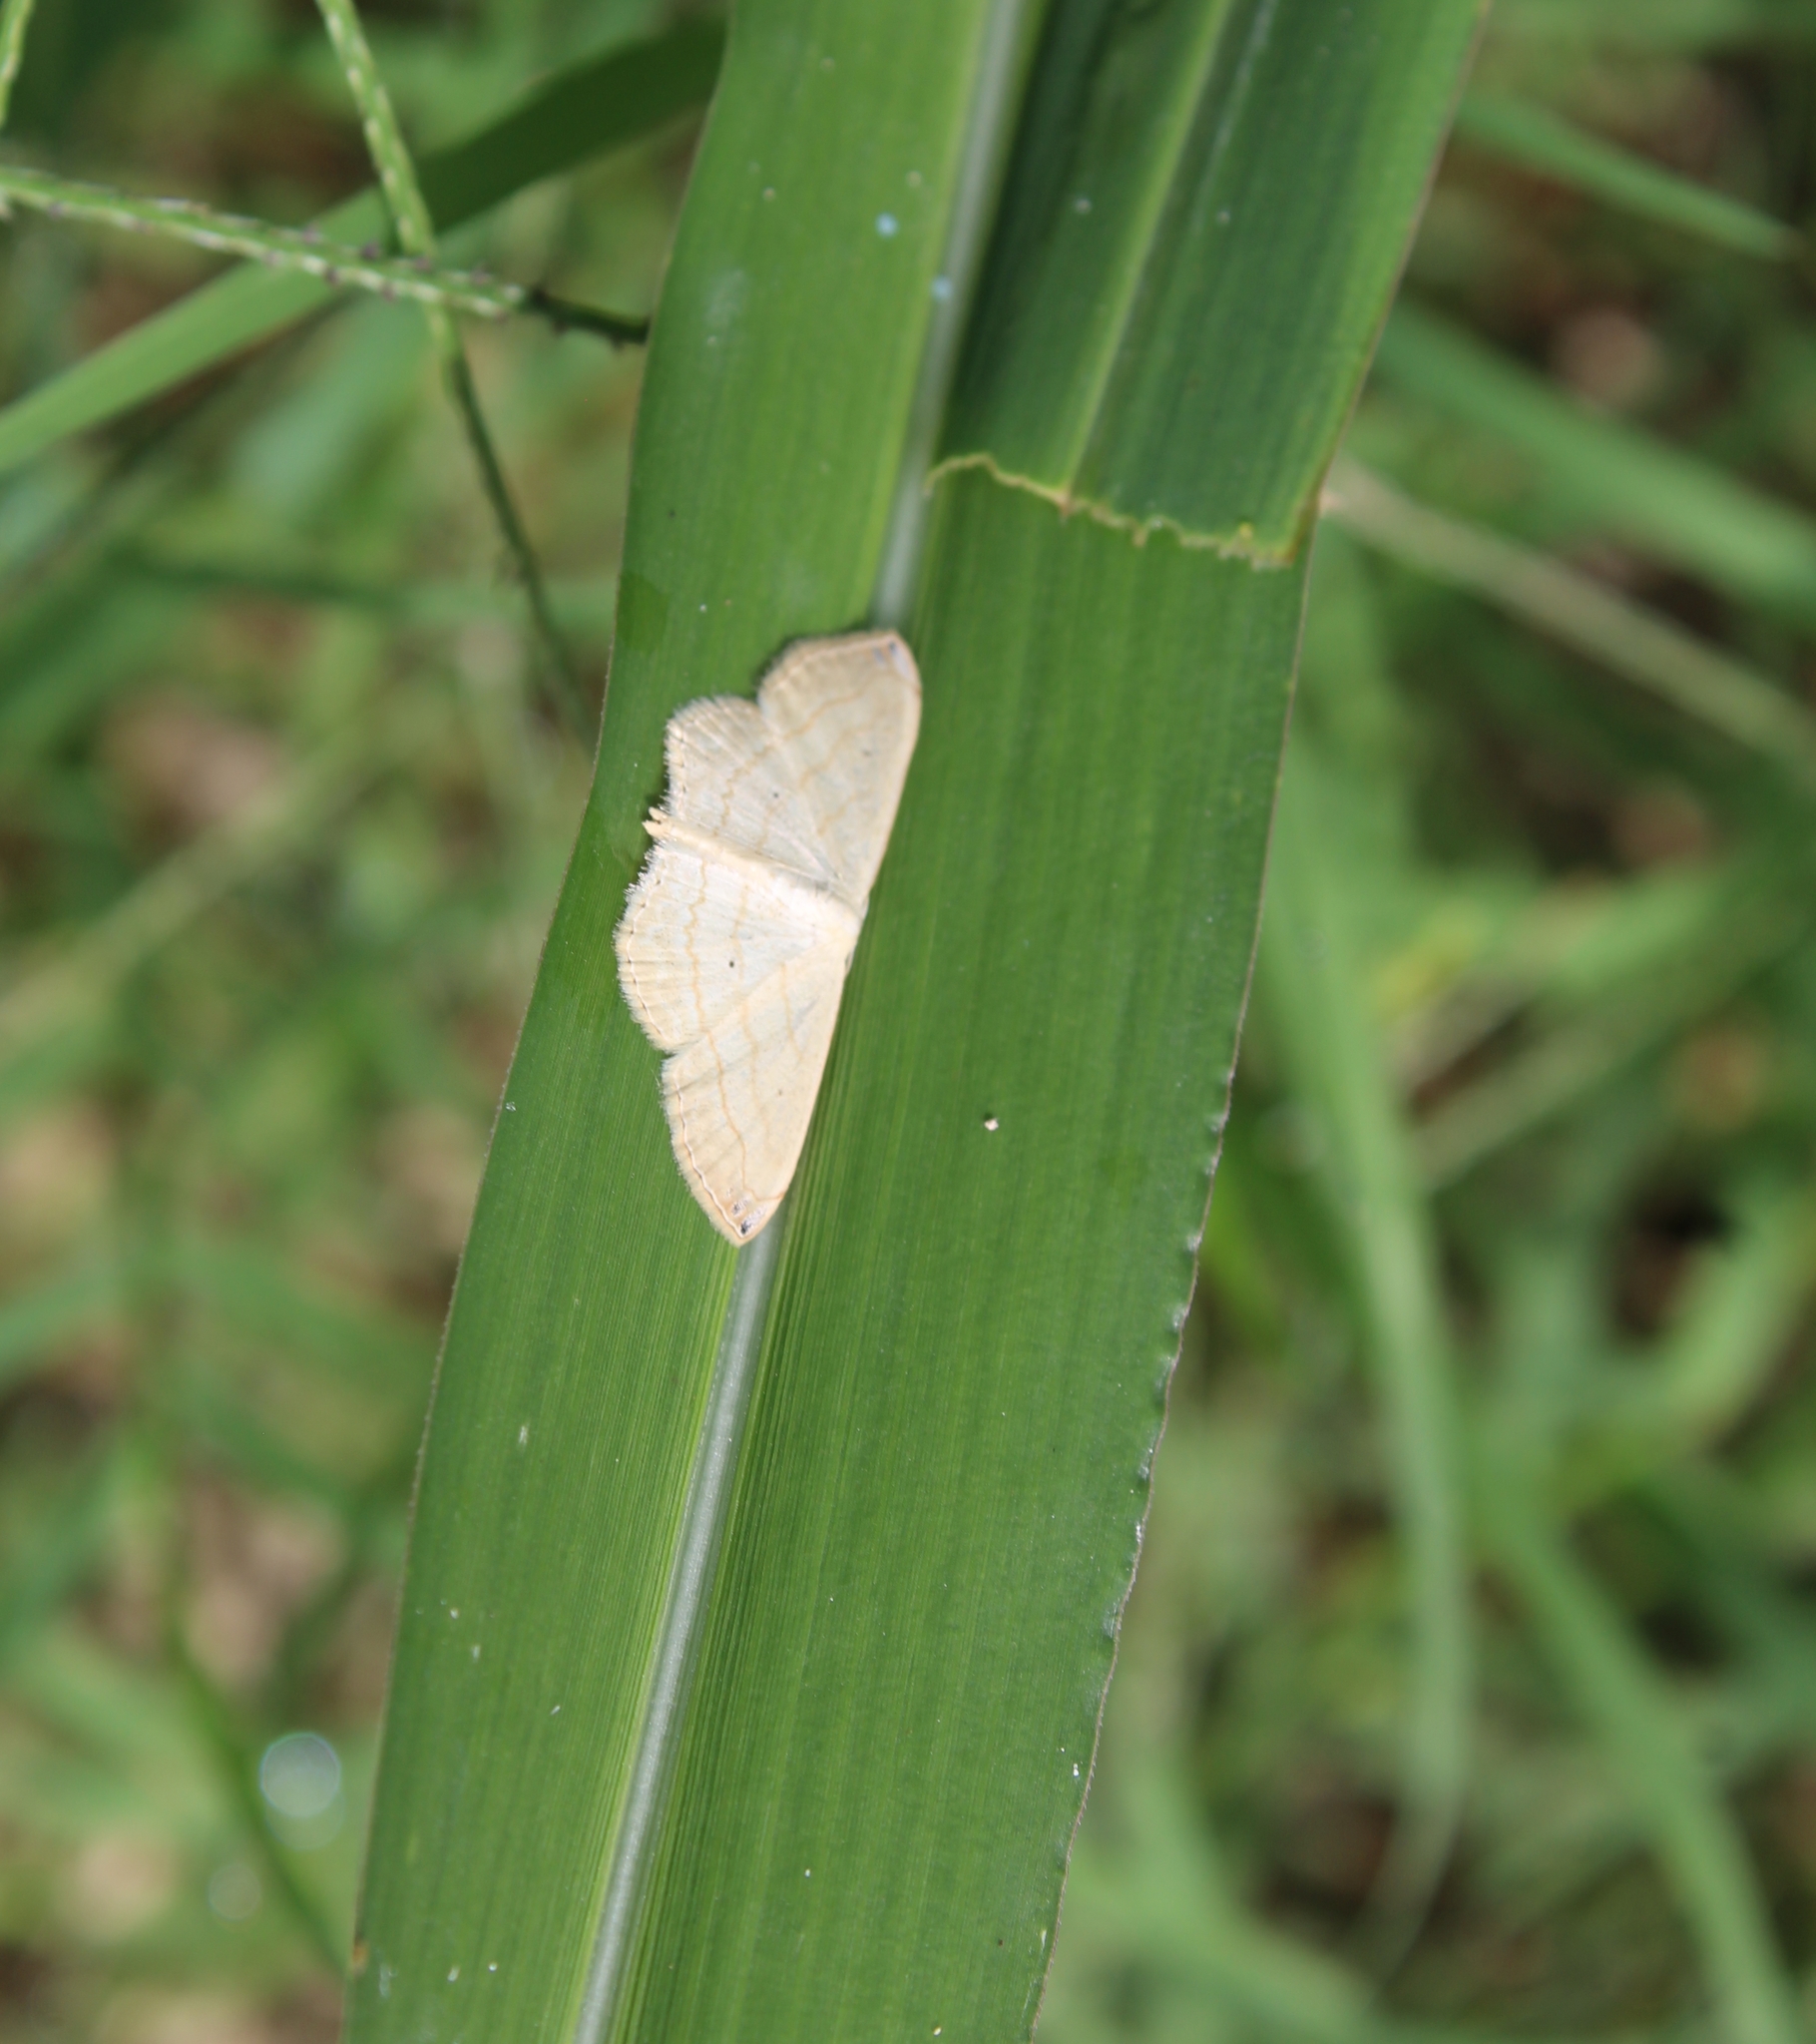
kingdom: Animalia
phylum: Arthropoda
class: Insecta
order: Lepidoptera
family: Geometridae
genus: Scopula
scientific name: Scopula umbilicata
